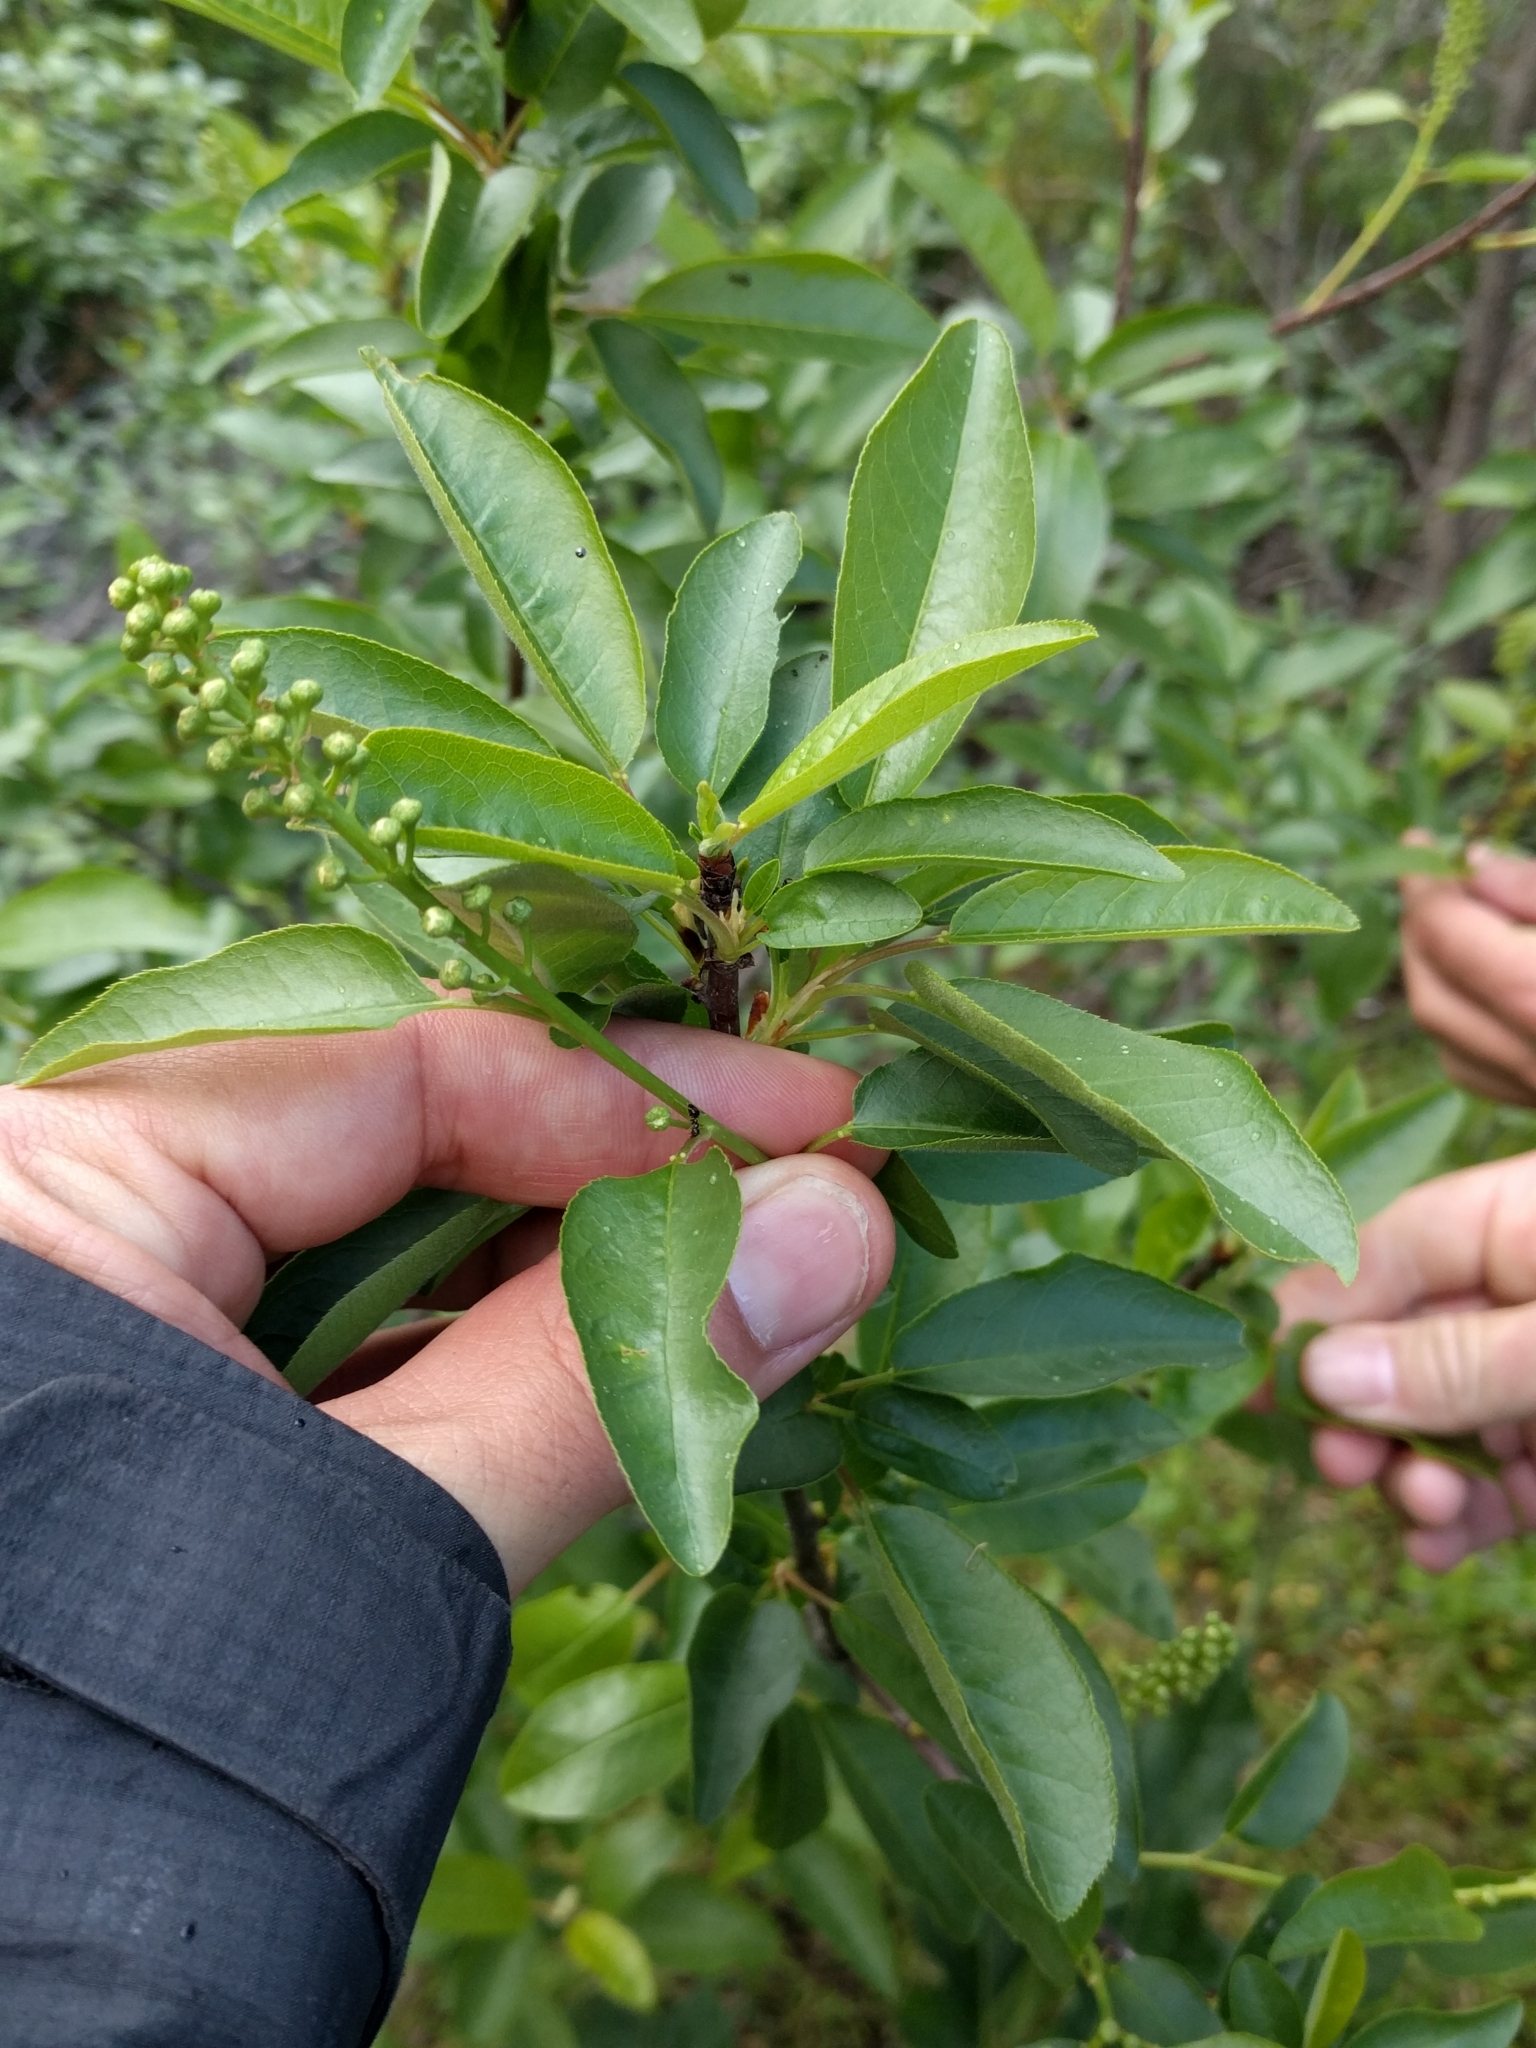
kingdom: Plantae
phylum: Tracheophyta
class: Magnoliopsida
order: Rosales
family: Rosaceae
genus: Prunus
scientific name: Prunus virginiana
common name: Chokecherry
